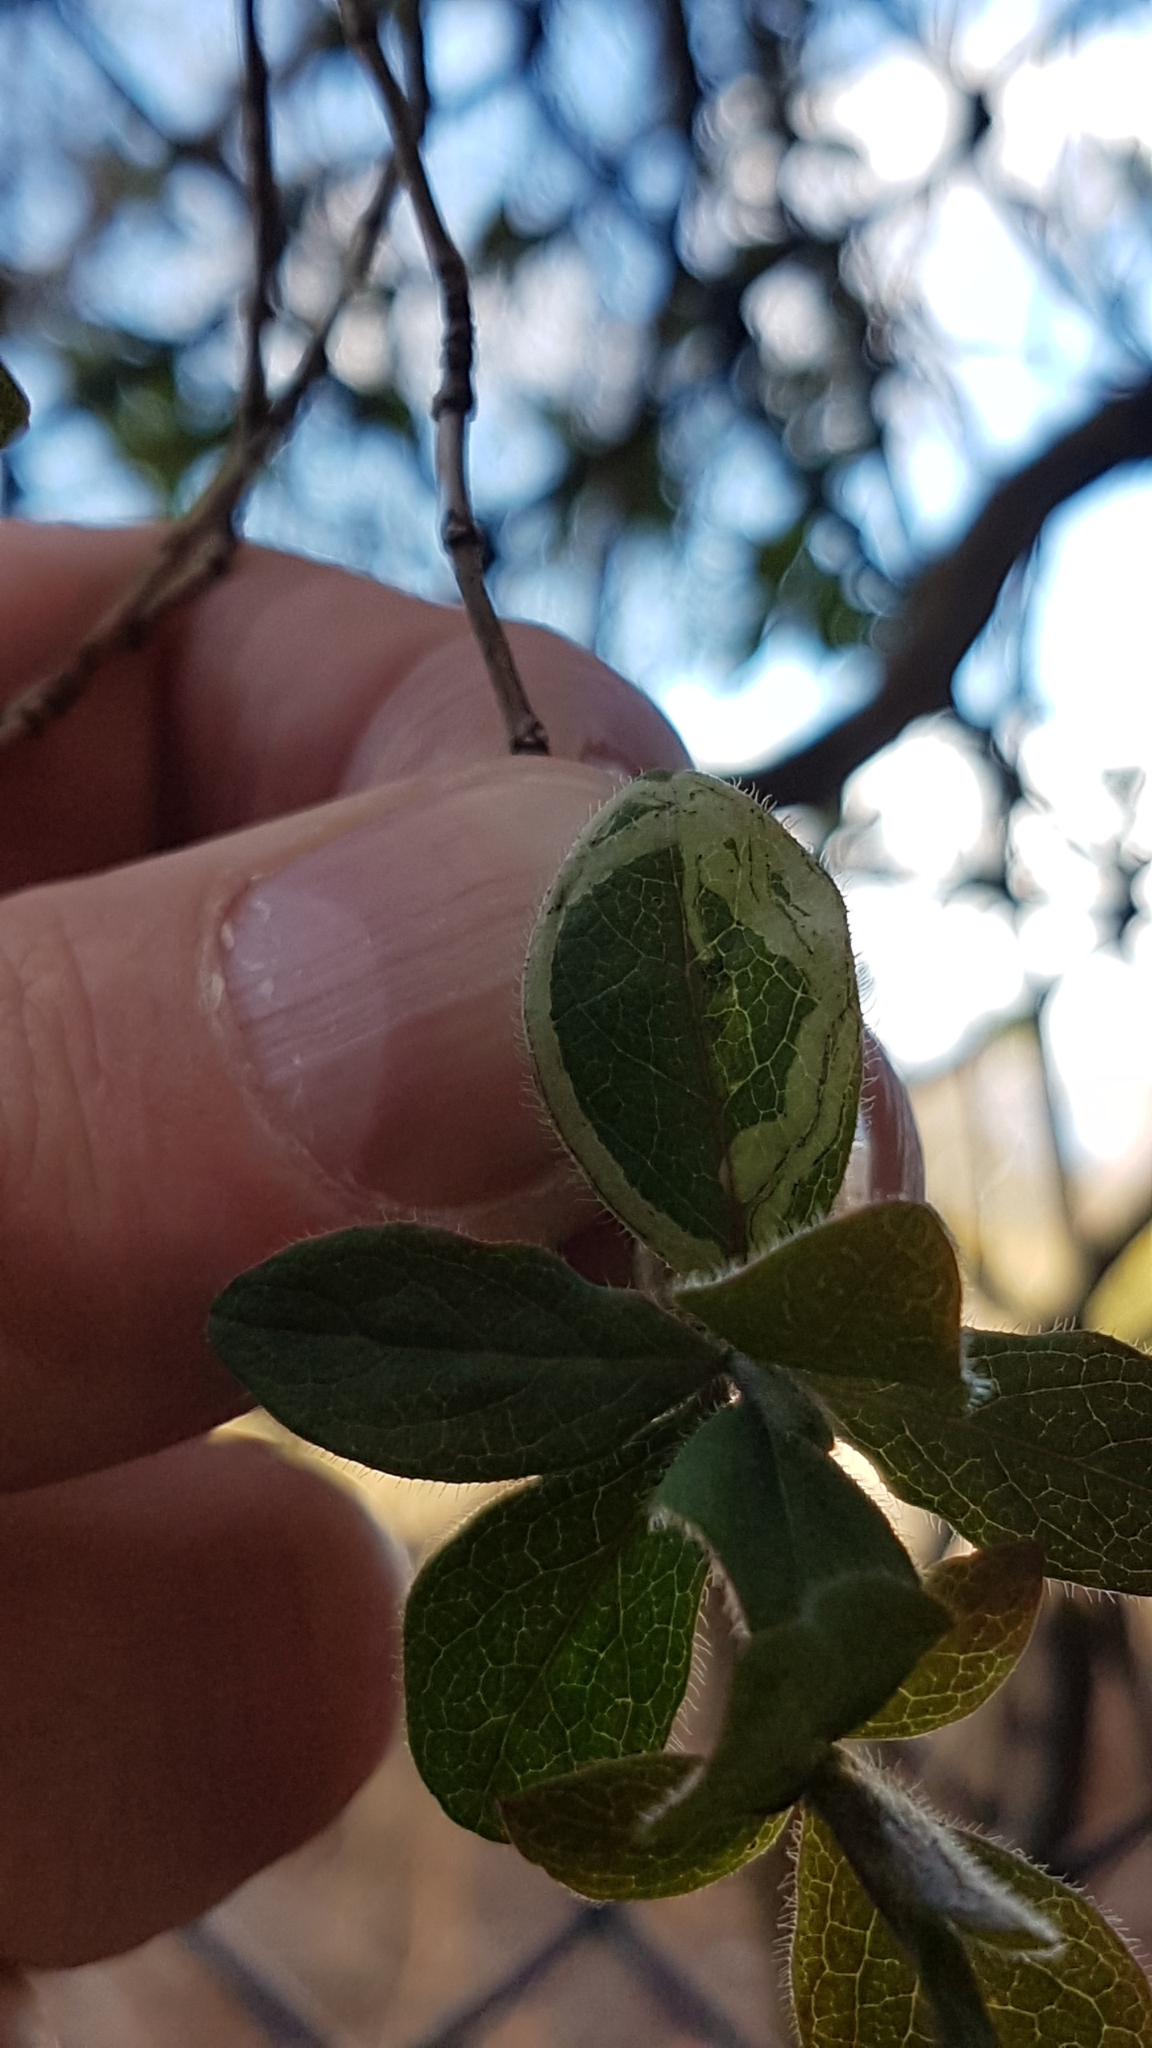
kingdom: Animalia
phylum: Arthropoda
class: Insecta
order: Diptera
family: Agromyzidae
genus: Phytomyza
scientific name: Phytomyza aprilina
